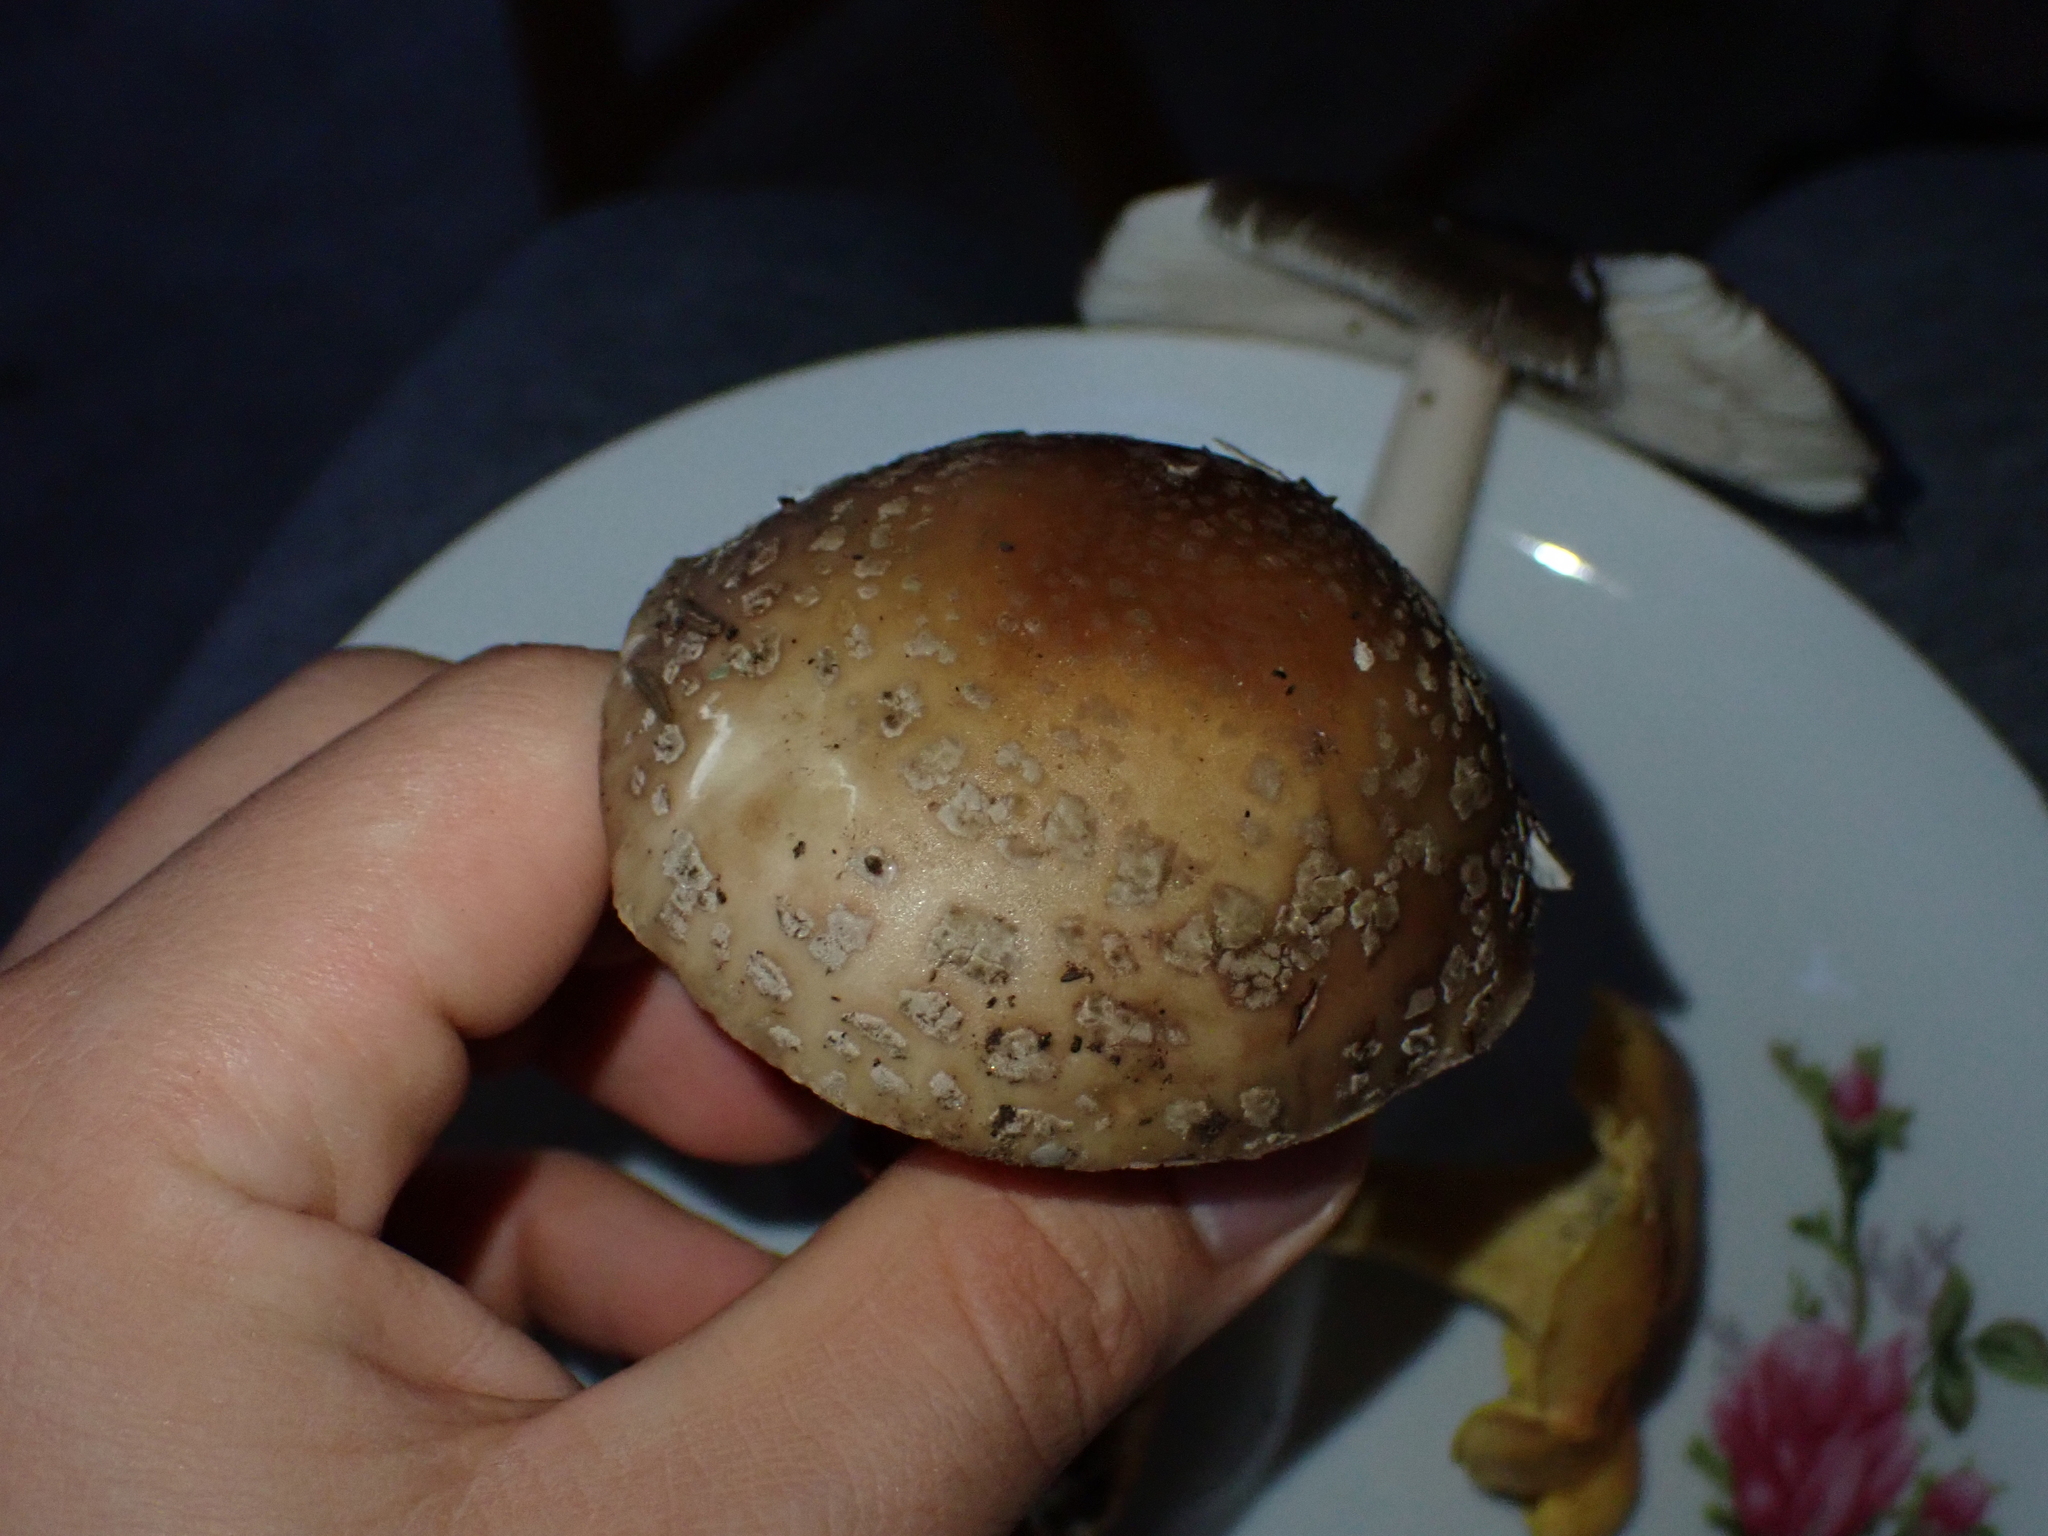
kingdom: Fungi
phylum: Basidiomycota
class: Agaricomycetes
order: Agaricales
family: Amanitaceae
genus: Amanita
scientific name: Amanita rubescens
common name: Blusher
